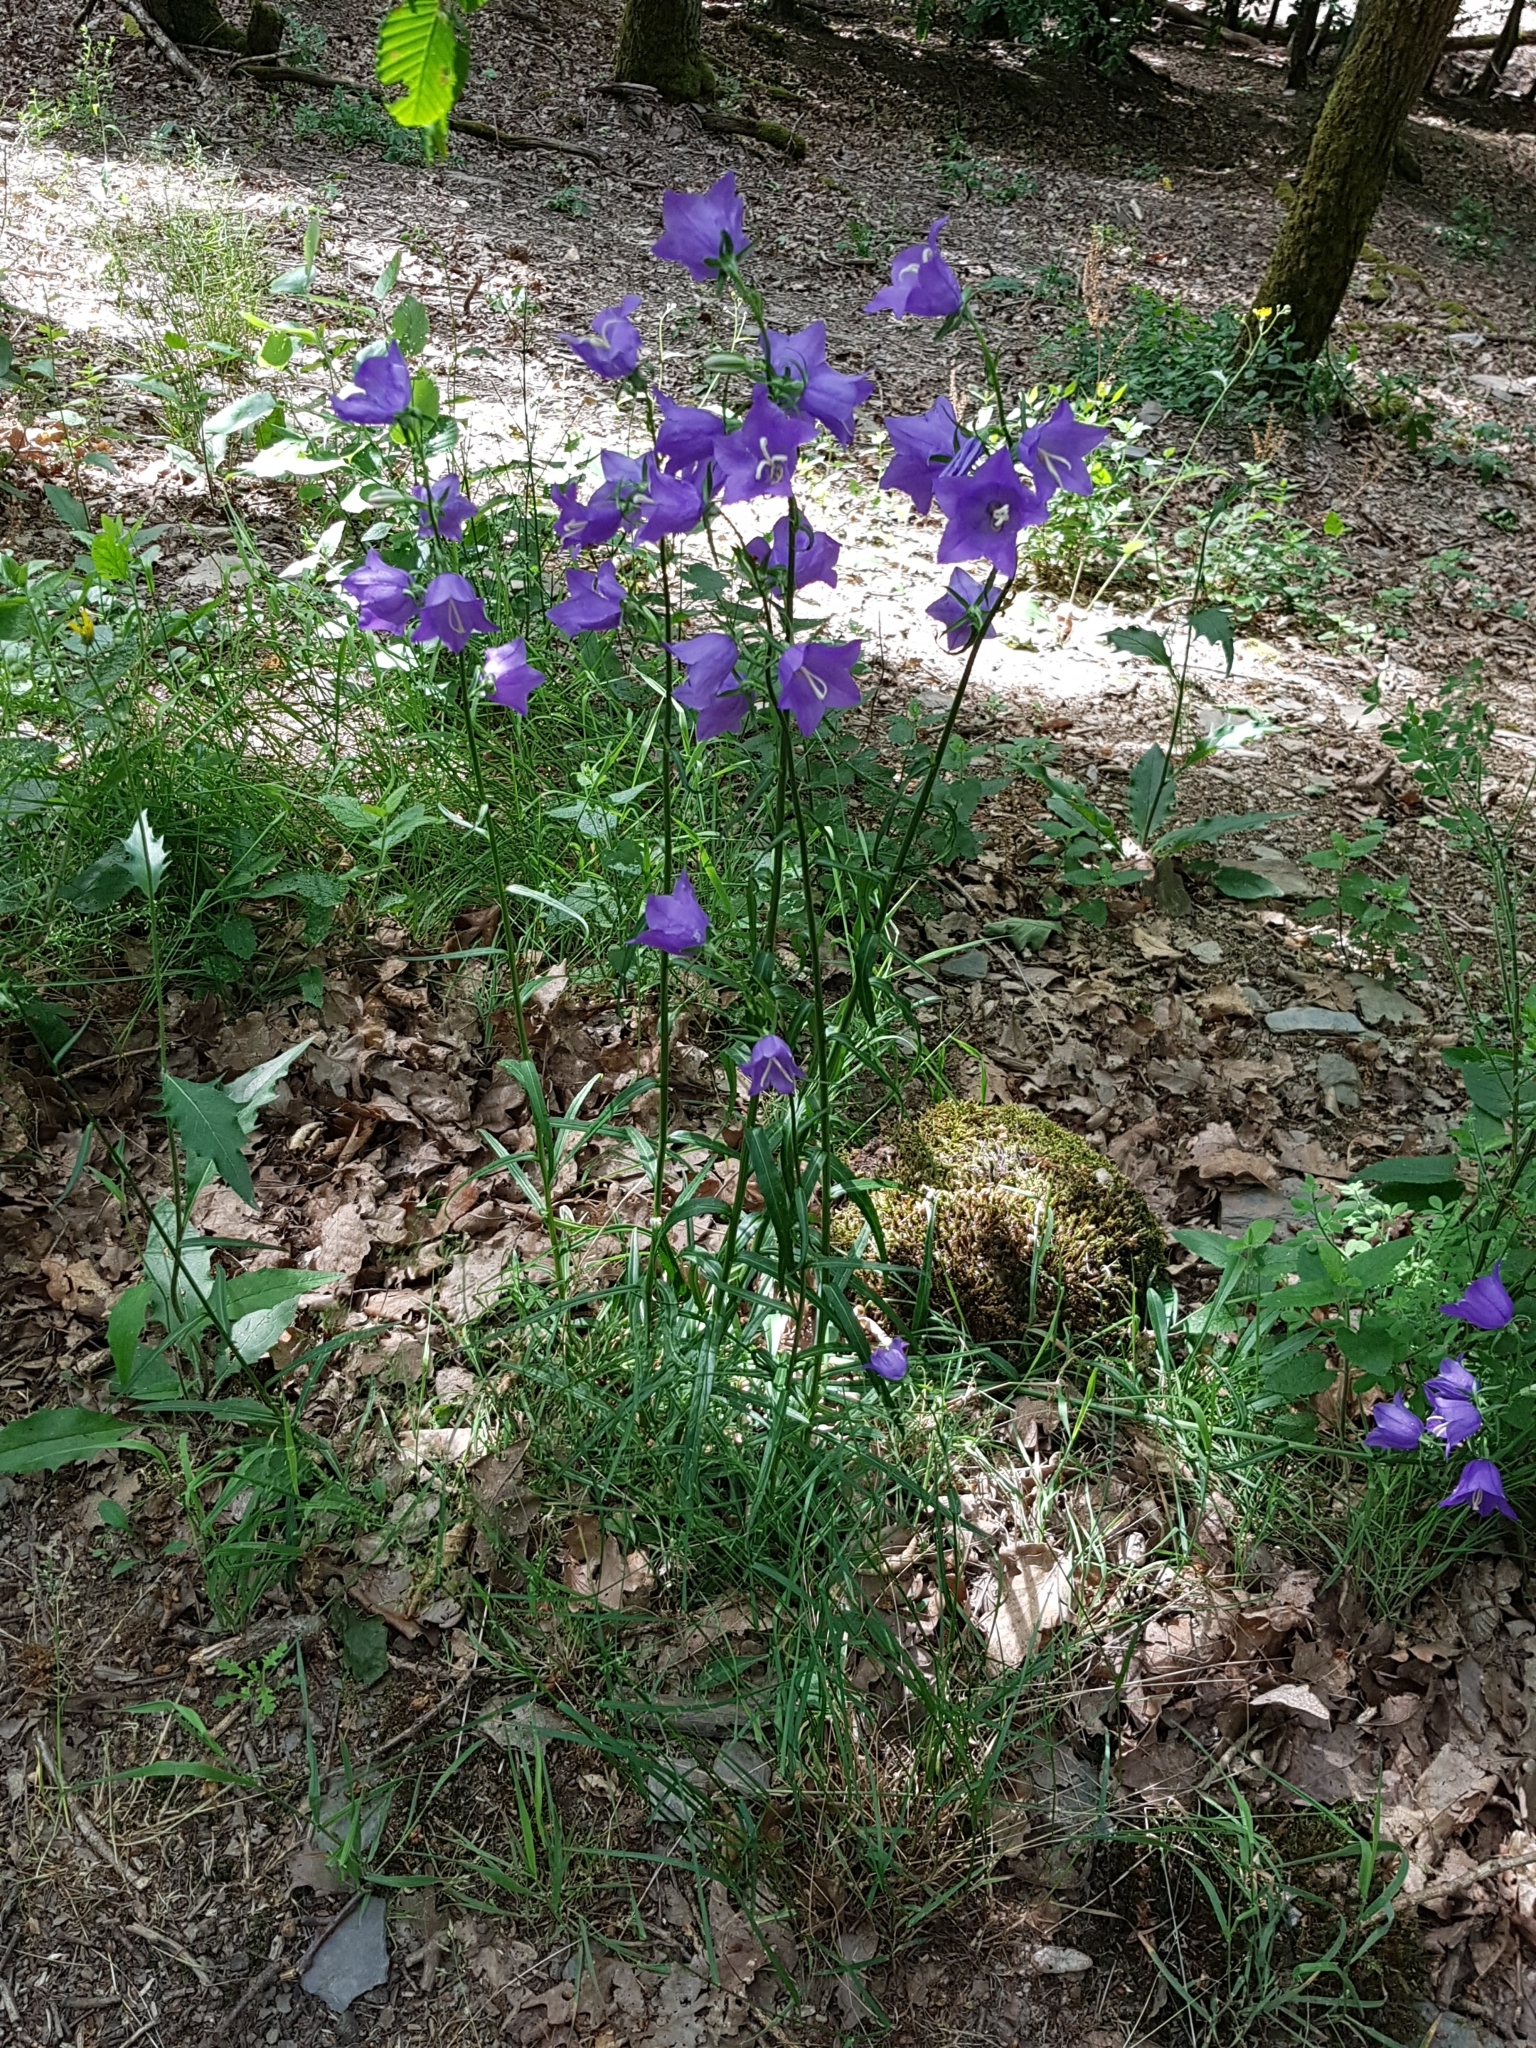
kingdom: Plantae
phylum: Tracheophyta
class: Magnoliopsida
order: Asterales
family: Campanulaceae
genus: Campanula
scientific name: Campanula persicifolia
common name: Peach-leaved bellflower
